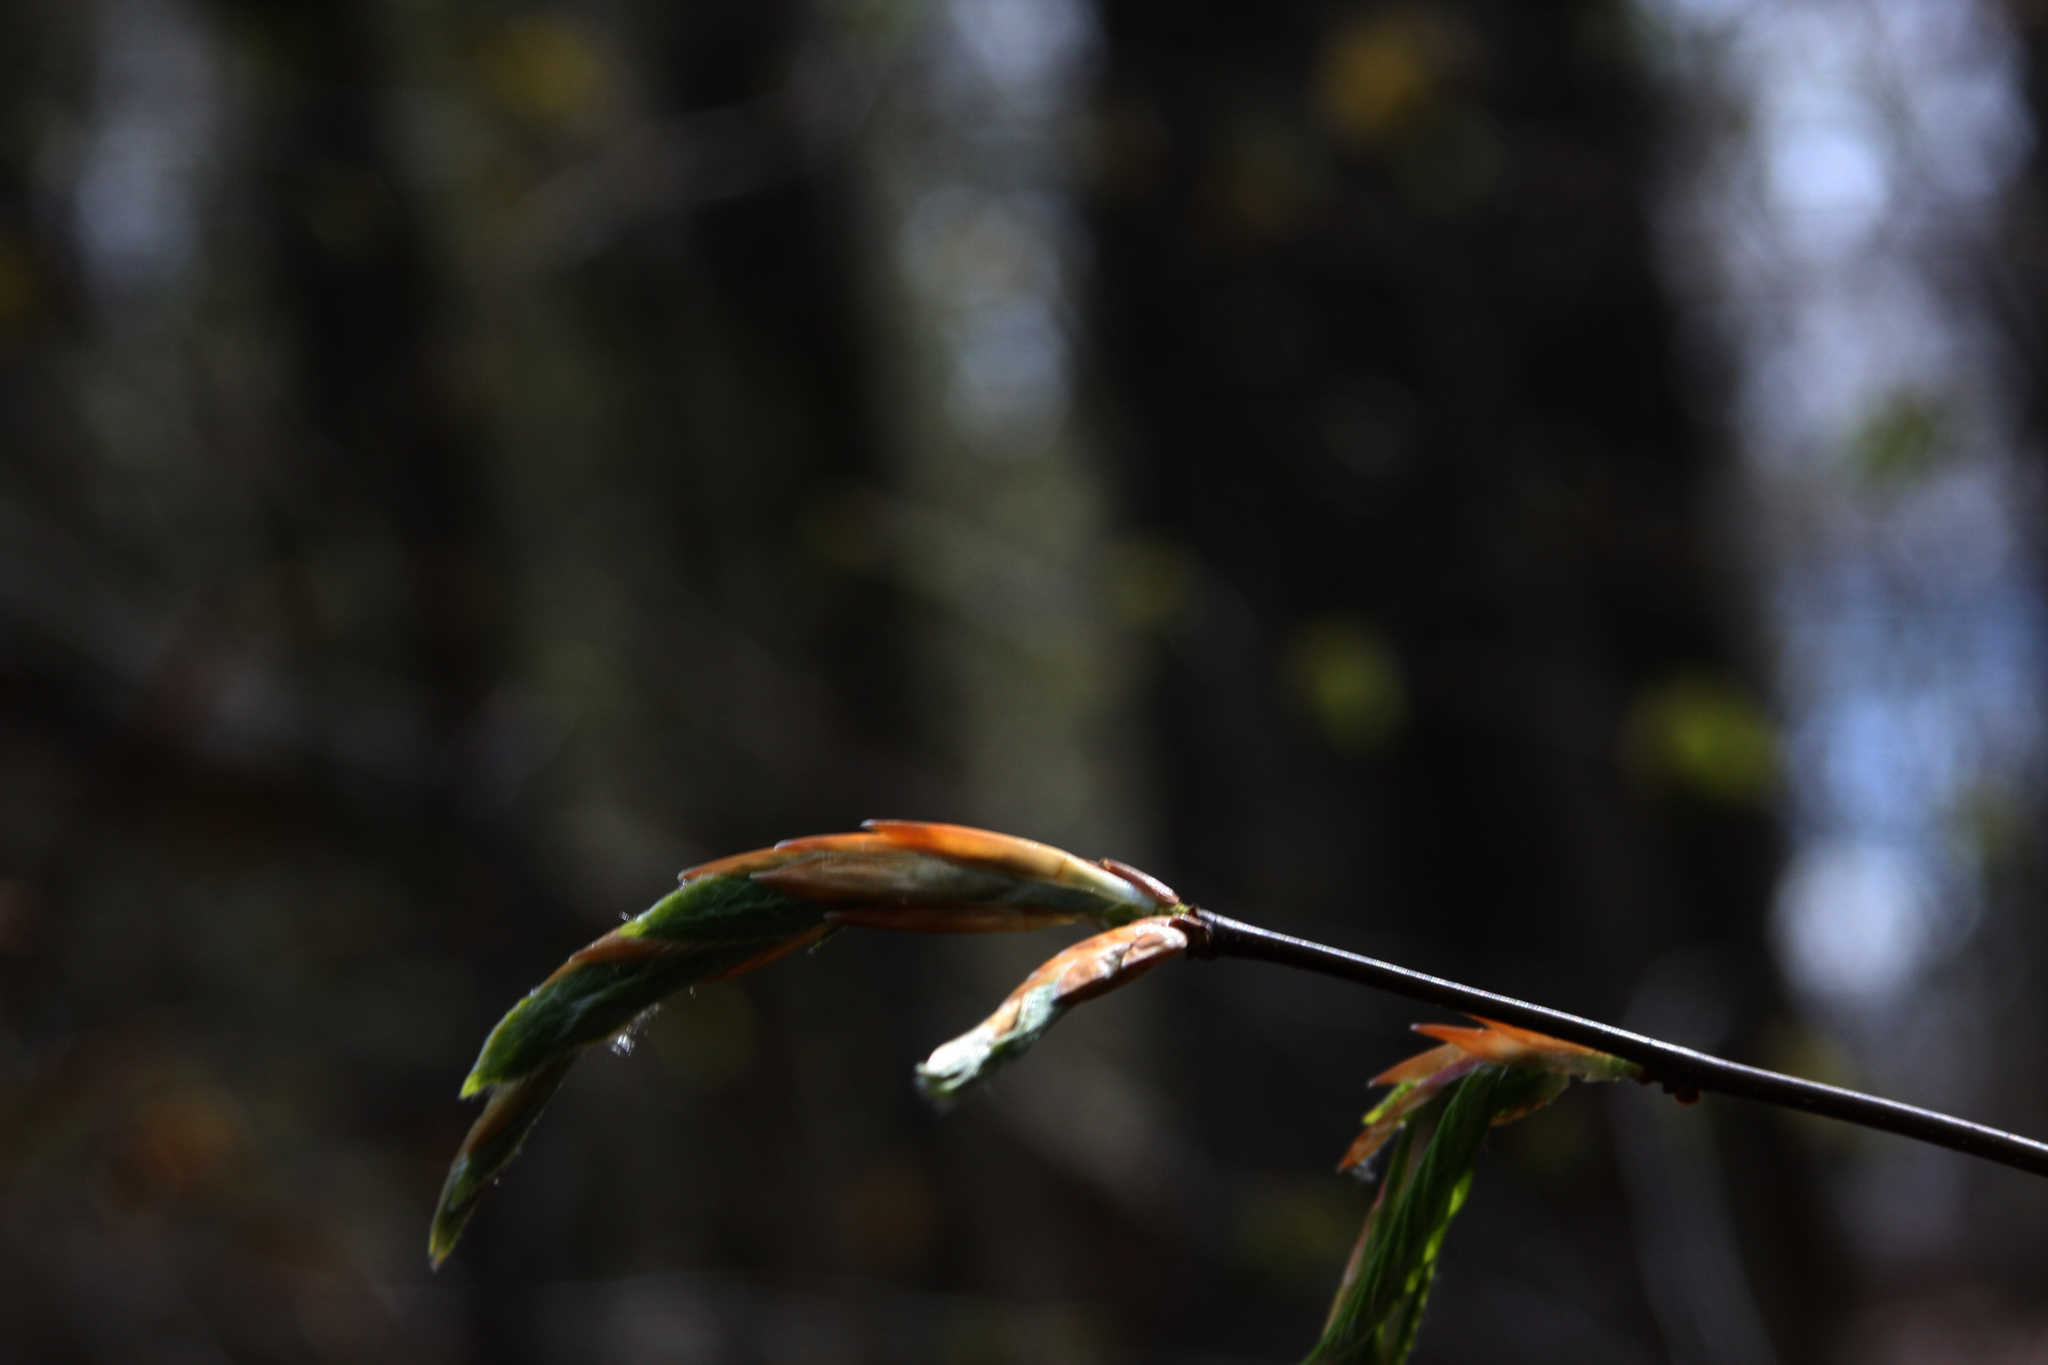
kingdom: Plantae
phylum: Tracheophyta
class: Magnoliopsida
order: Fagales
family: Fagaceae
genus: Fagus
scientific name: Fagus grandifolia
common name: American beech
